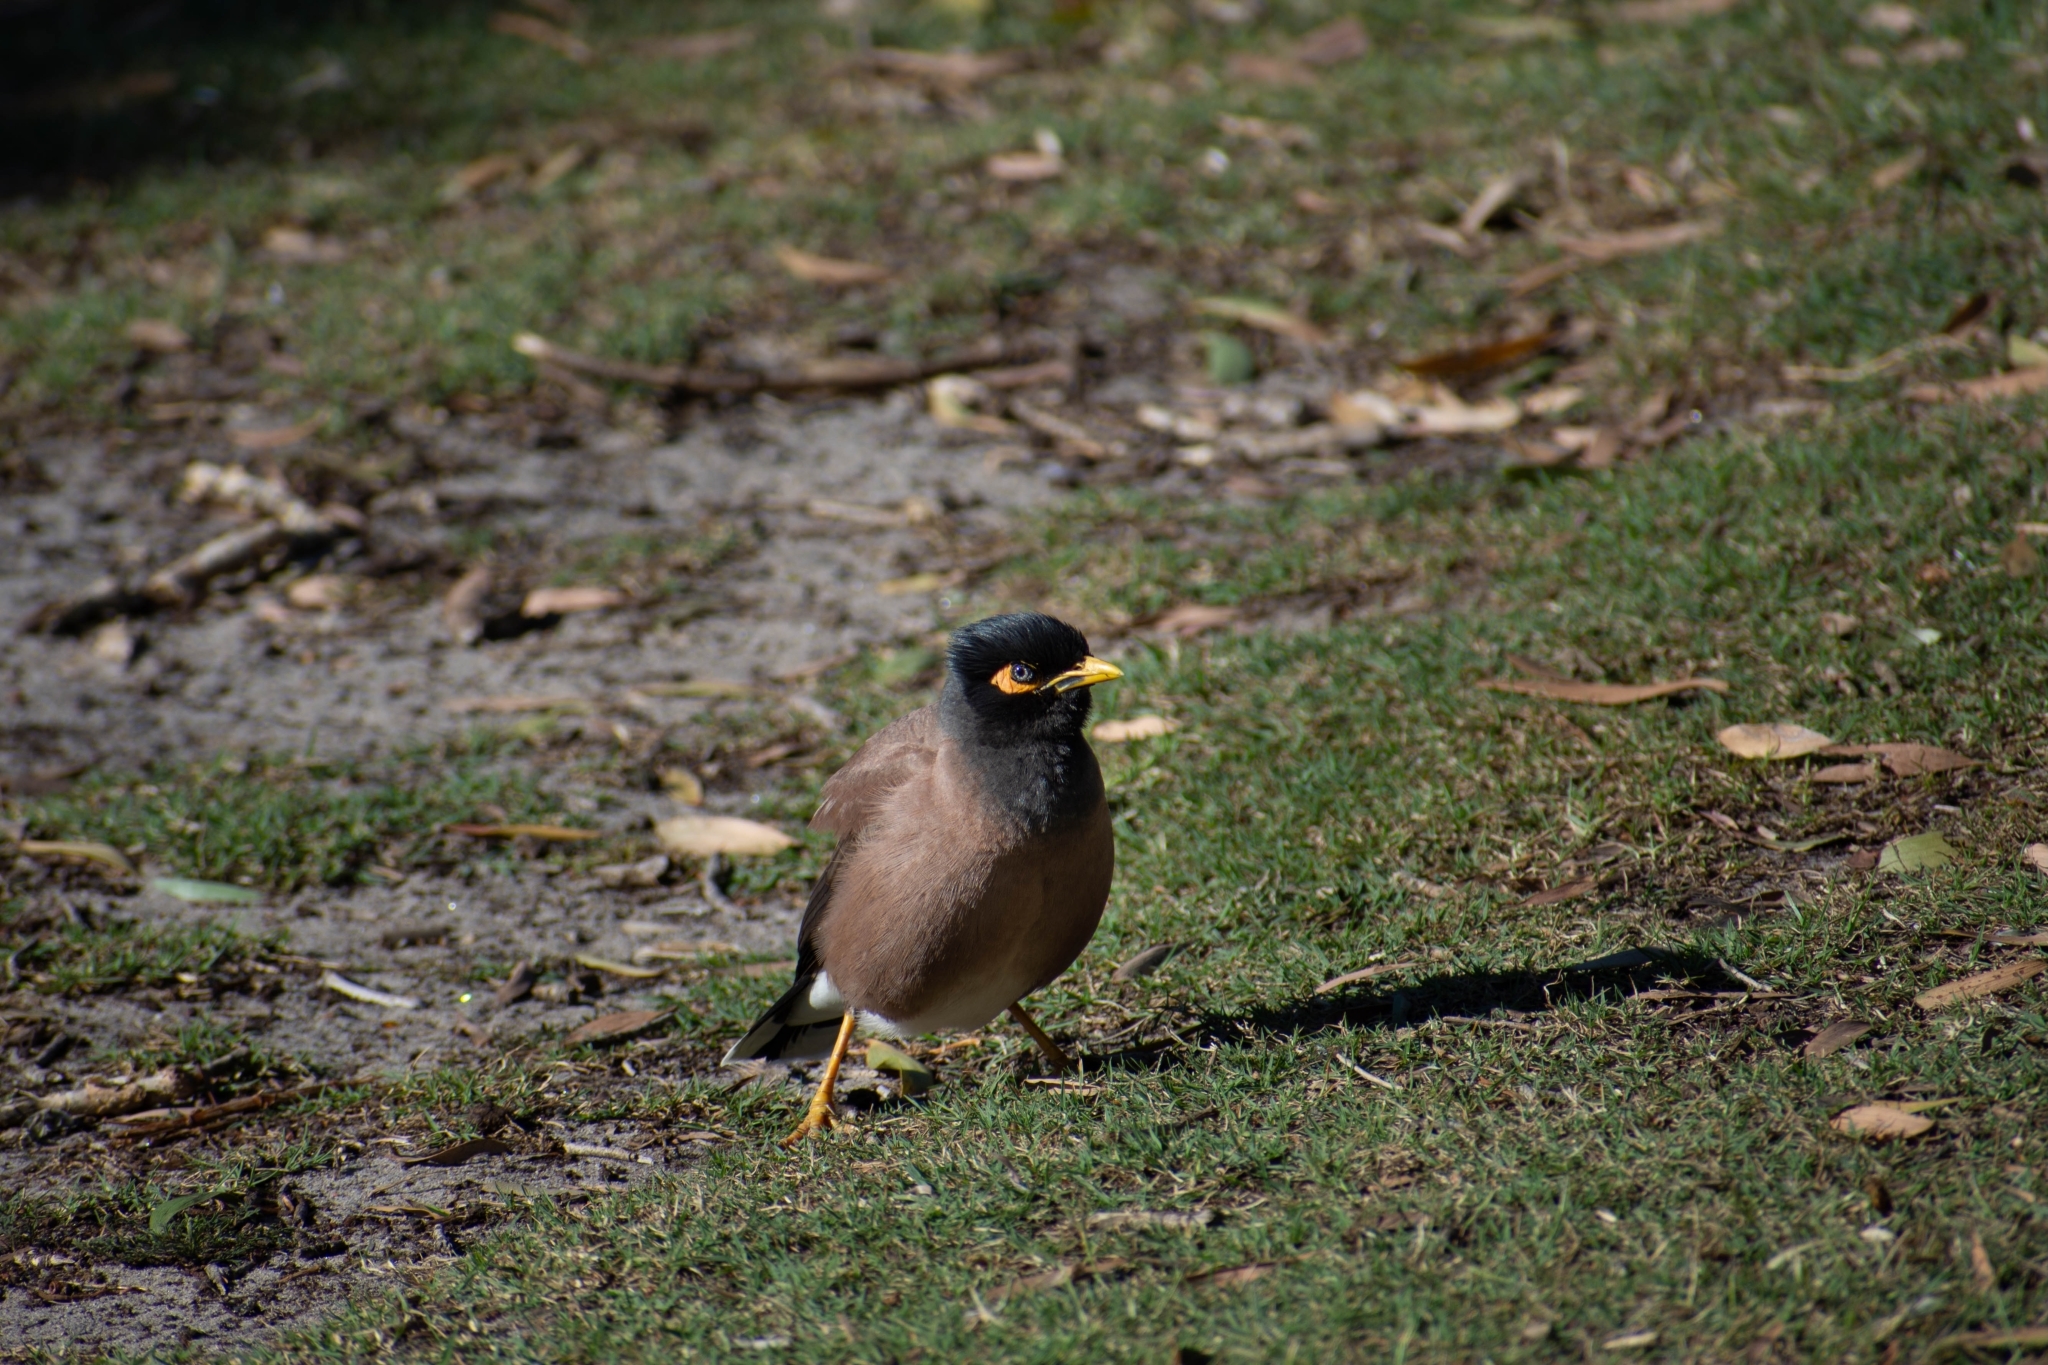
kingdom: Animalia
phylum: Chordata
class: Aves
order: Passeriformes
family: Sturnidae
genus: Acridotheres
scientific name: Acridotheres tristis
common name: Common myna
